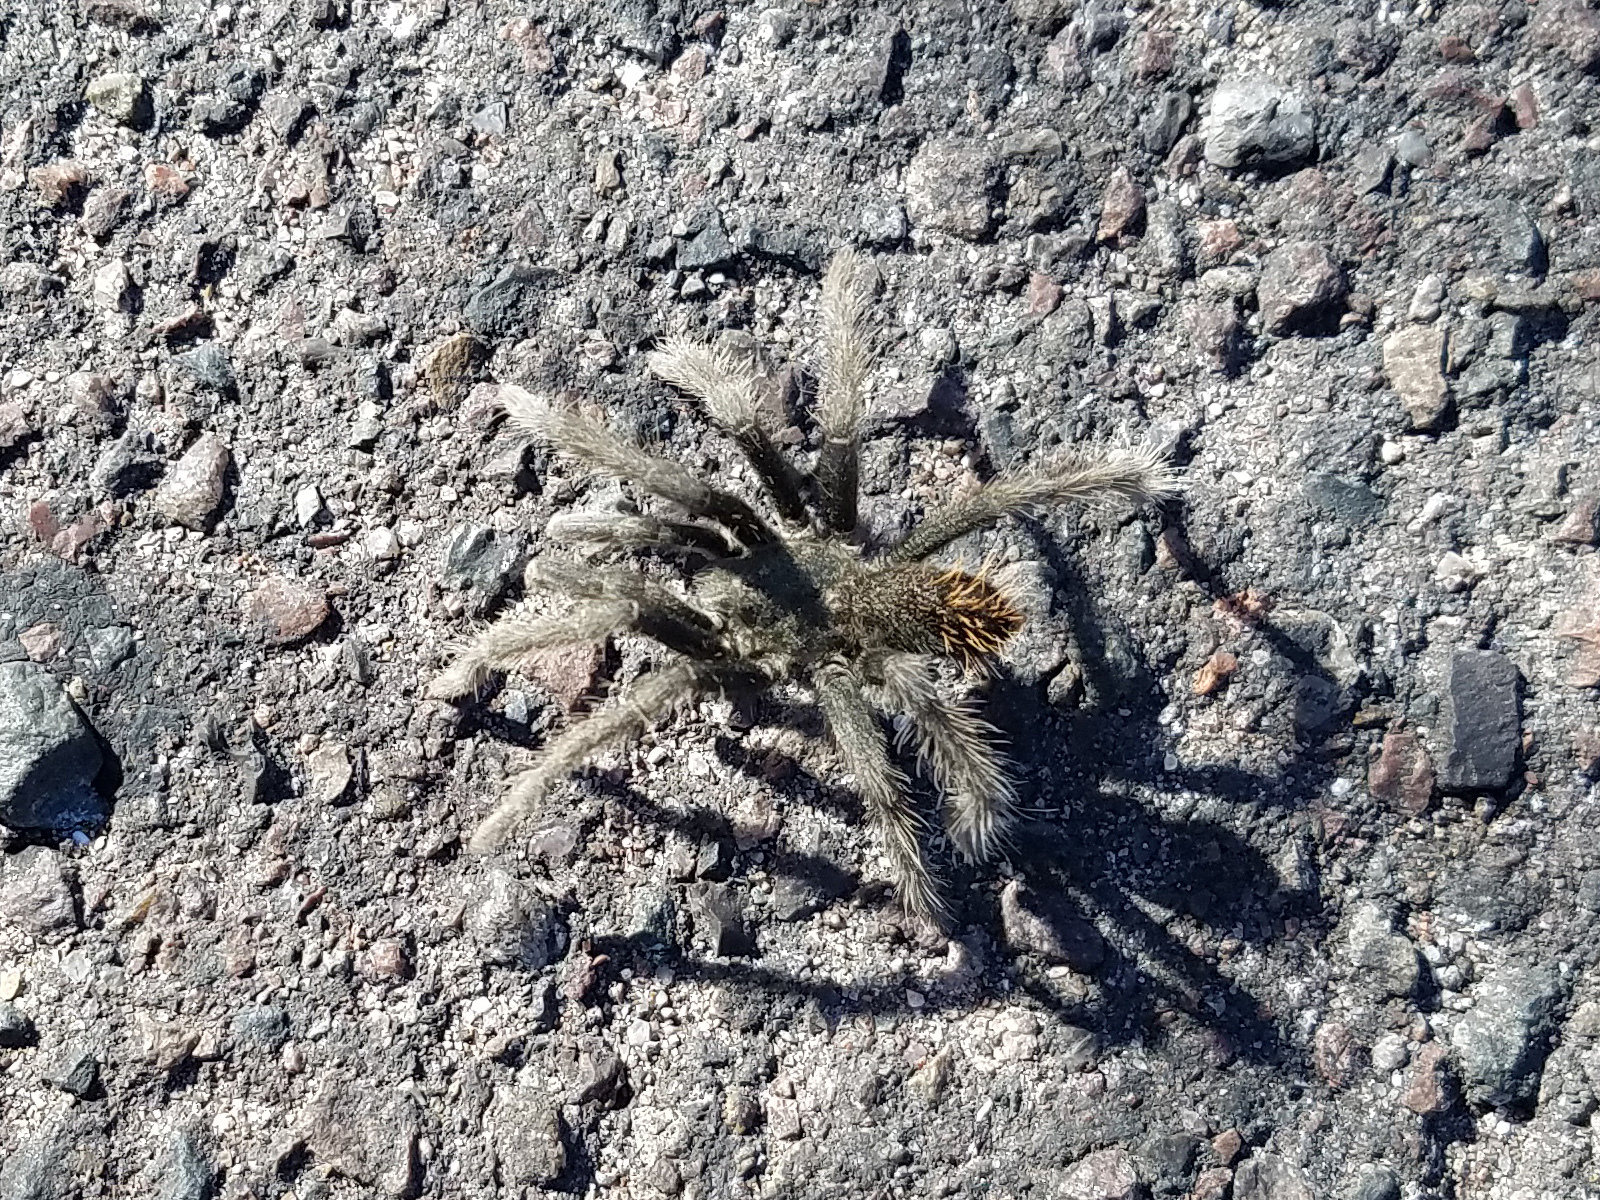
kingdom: Animalia
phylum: Arthropoda
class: Arachnida
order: Araneae
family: Theraphosidae
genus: Aphonopelma
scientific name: Aphonopelma saguaro
